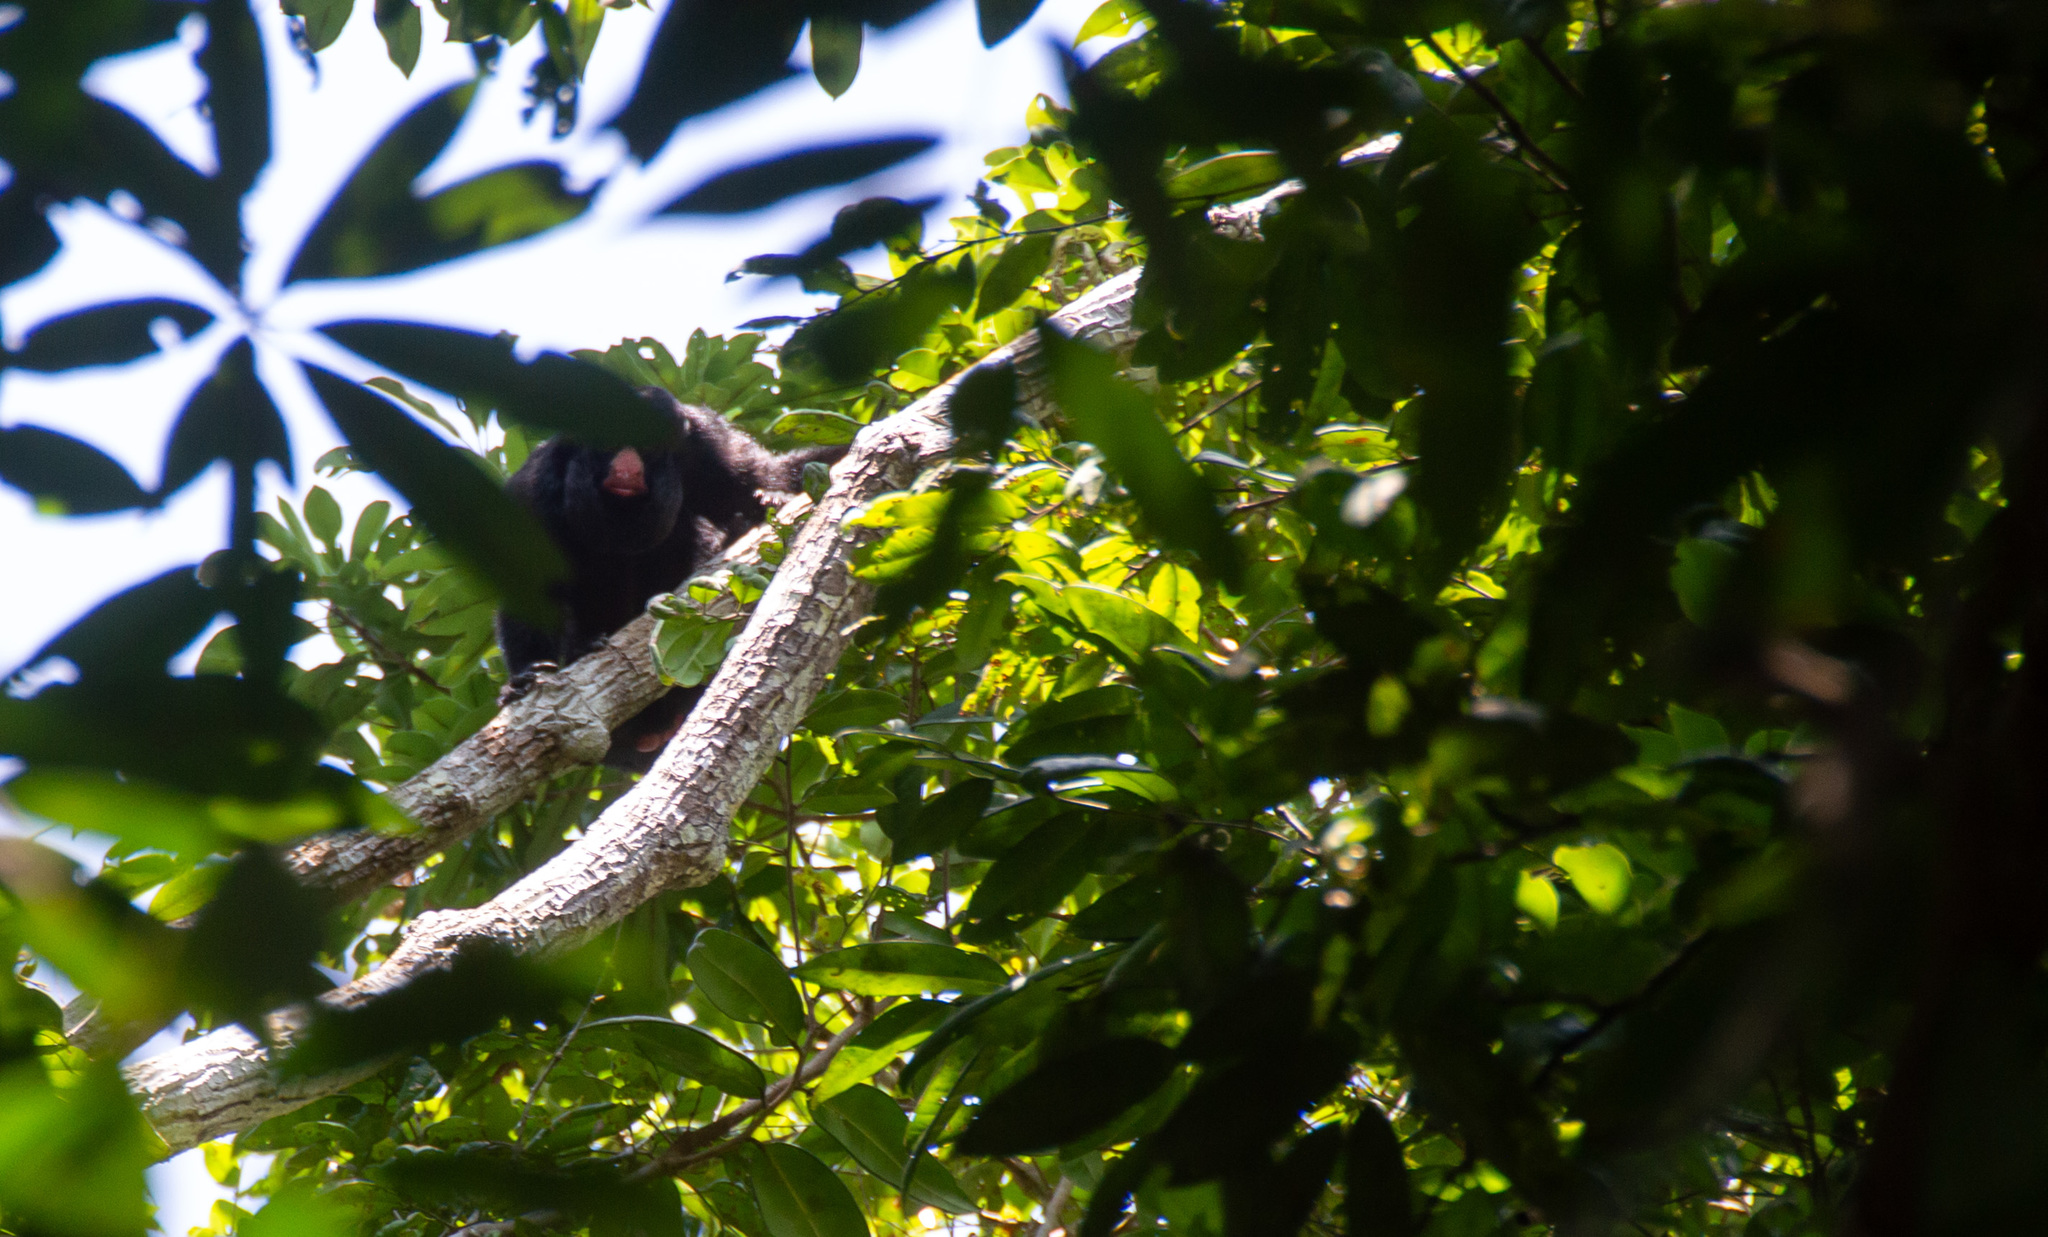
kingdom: Animalia
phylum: Chordata
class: Mammalia
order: Primates
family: Pitheciidae
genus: Chiropotes
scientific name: Chiropotes albinasus
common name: White-nosed saki
